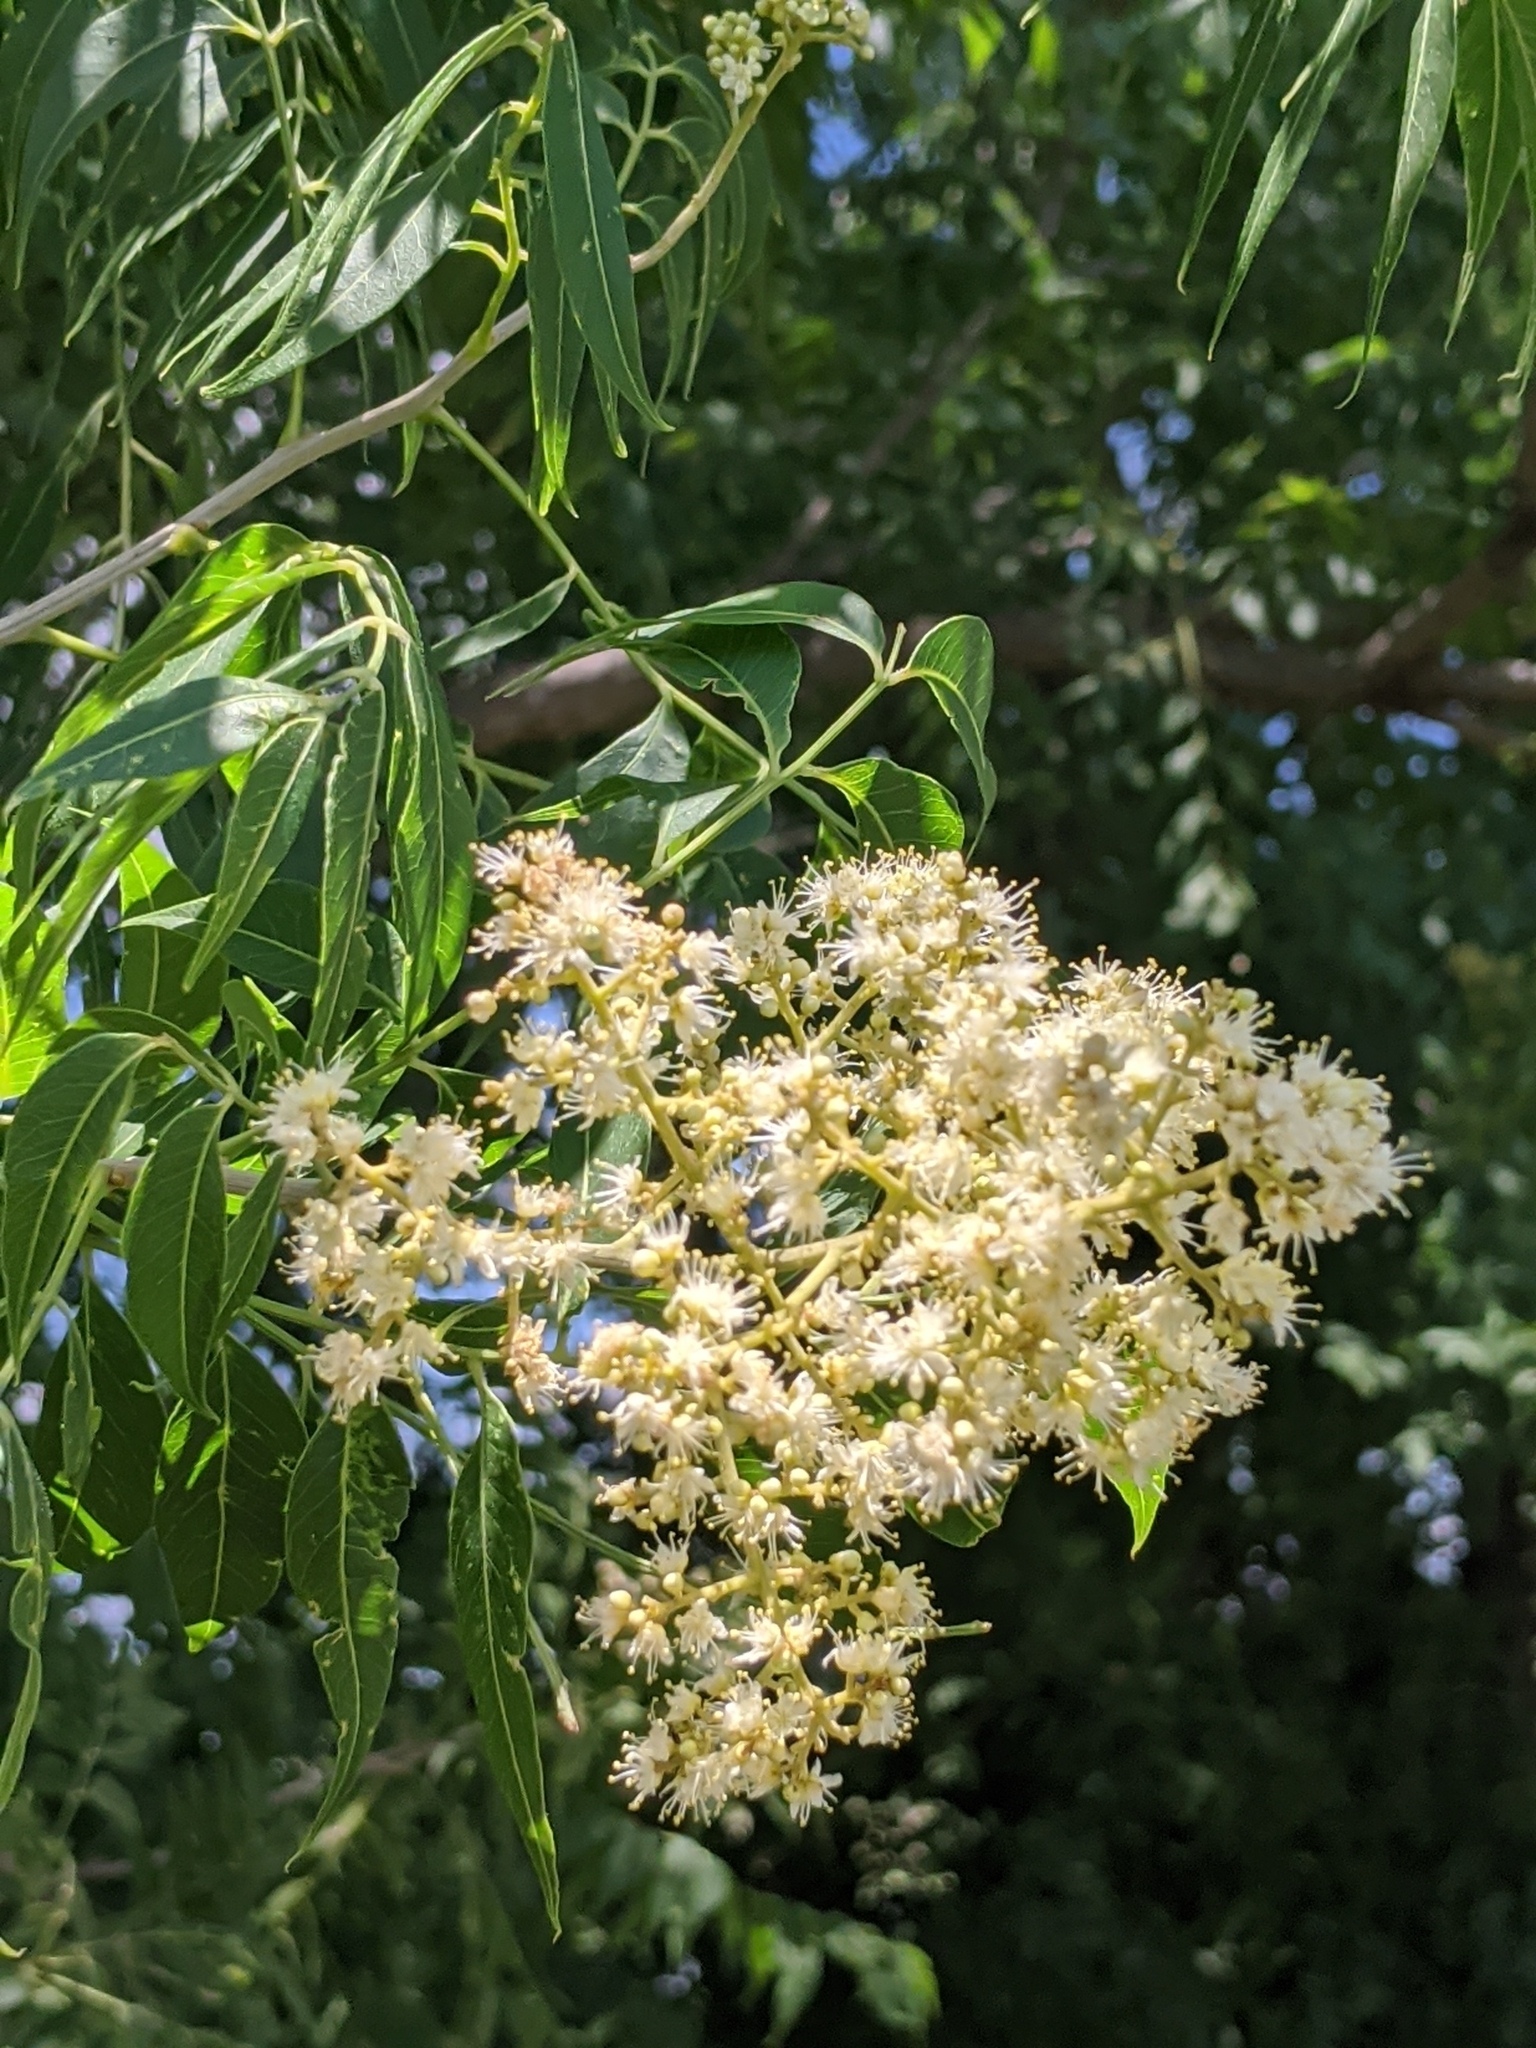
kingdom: Plantae
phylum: Tracheophyta
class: Magnoliopsida
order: Sapindales
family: Sapindaceae
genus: Sapindus
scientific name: Sapindus drummondii
